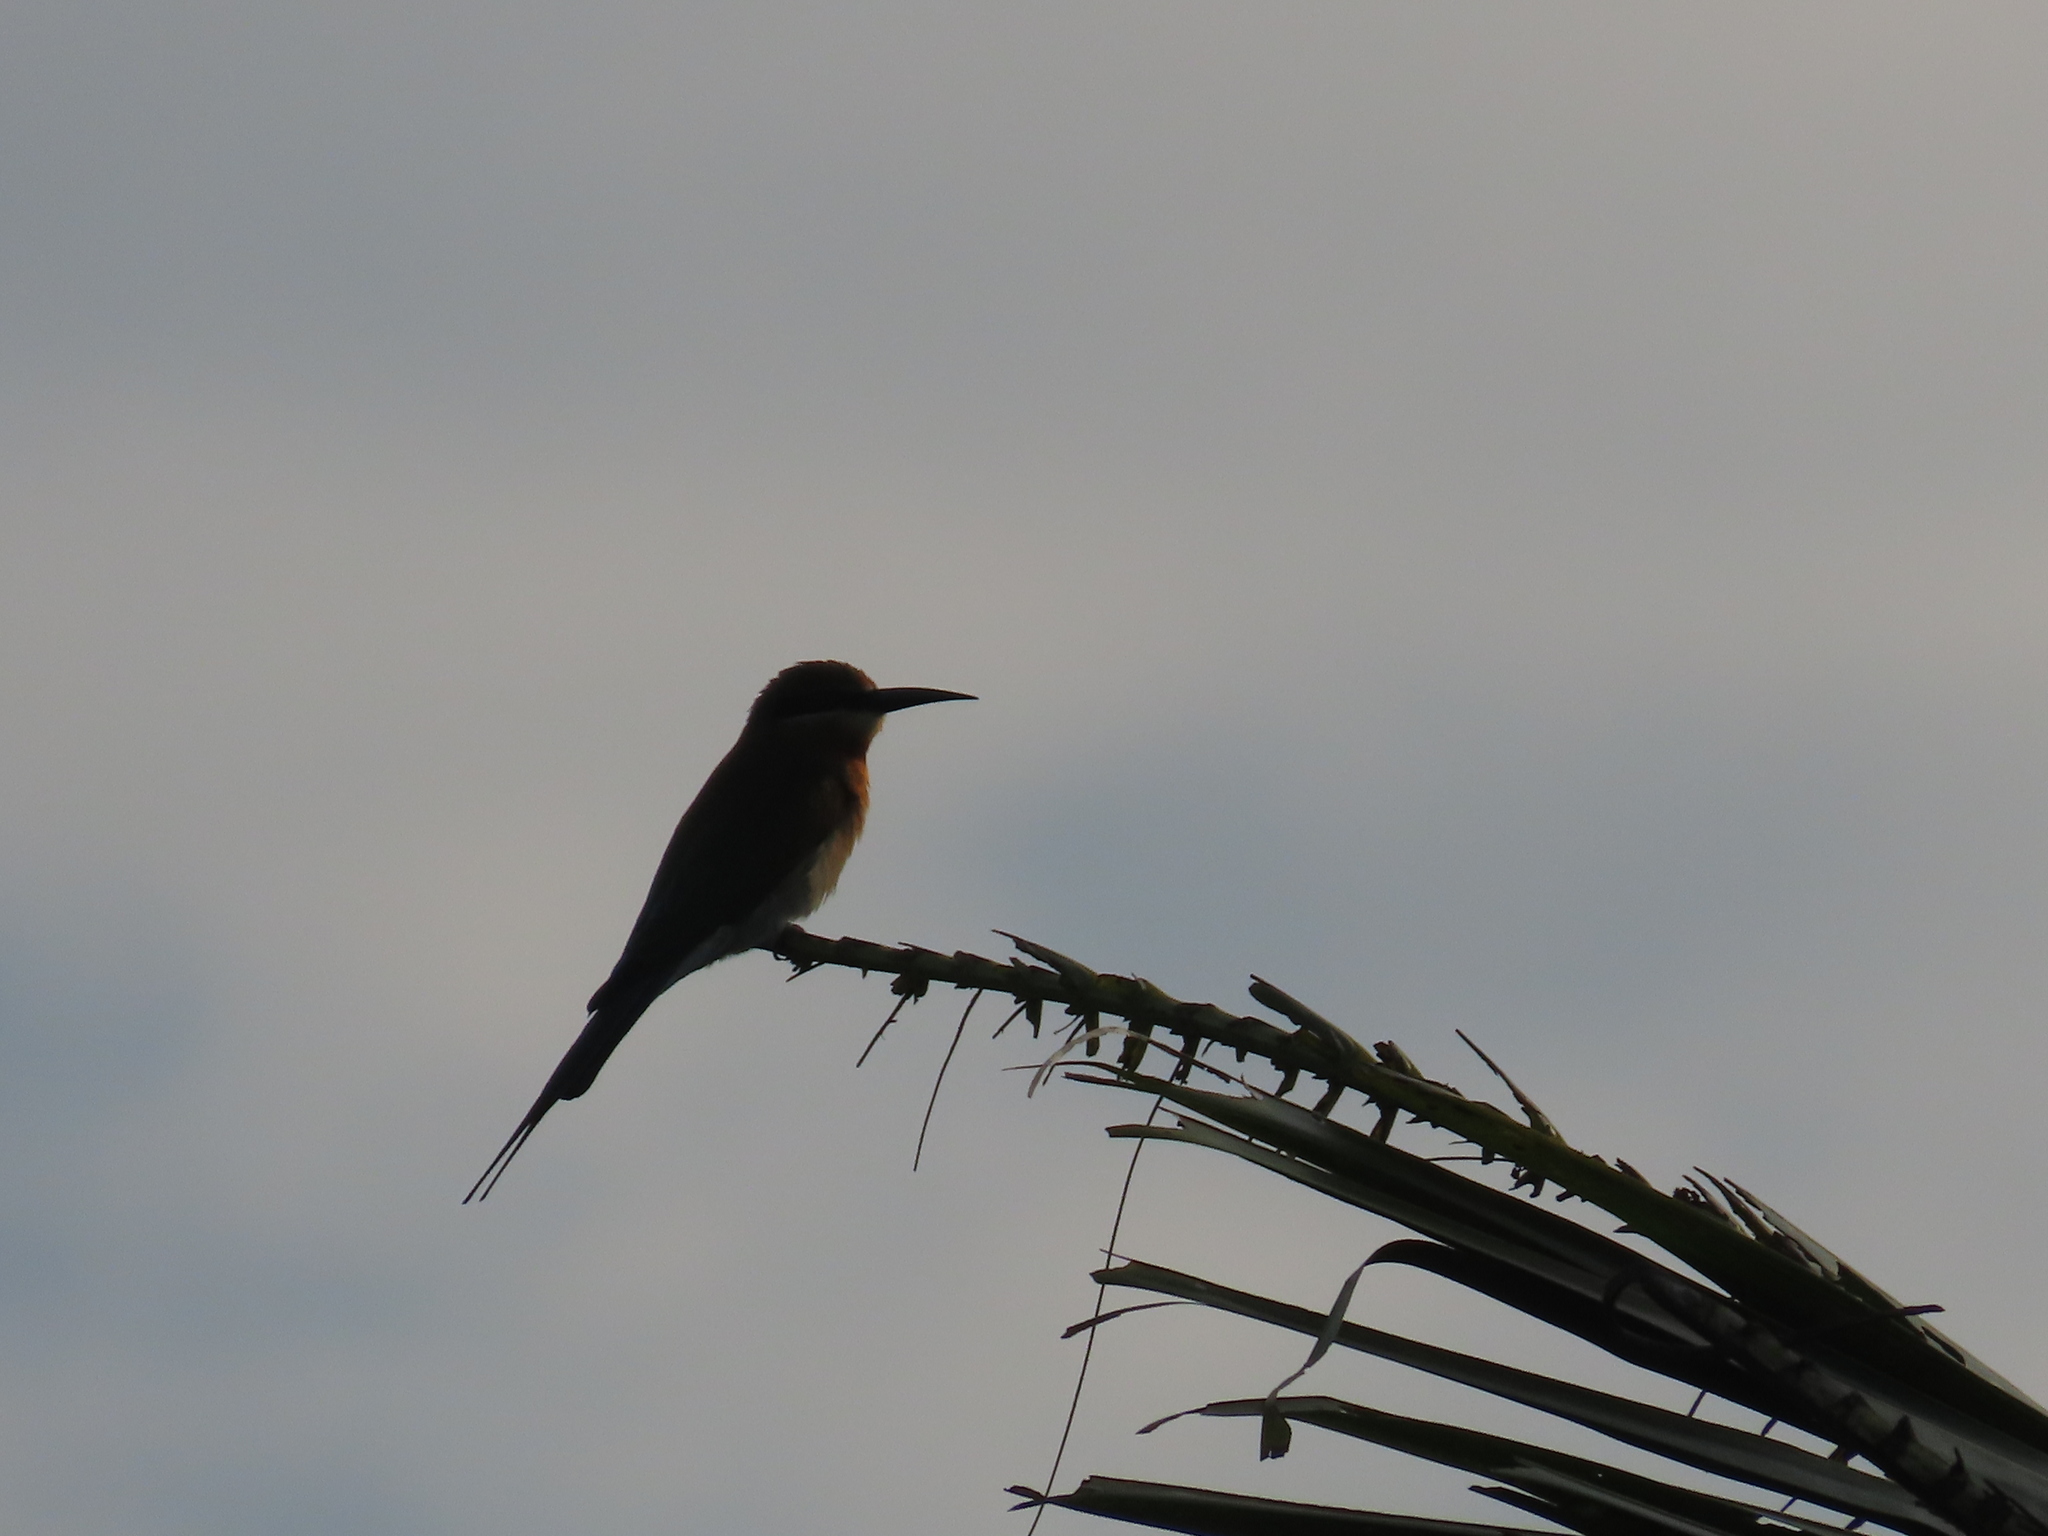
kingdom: Animalia
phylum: Chordata
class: Aves
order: Coraciiformes
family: Meropidae
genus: Merops
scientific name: Merops philippinus
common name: Blue-tailed bee-eater
